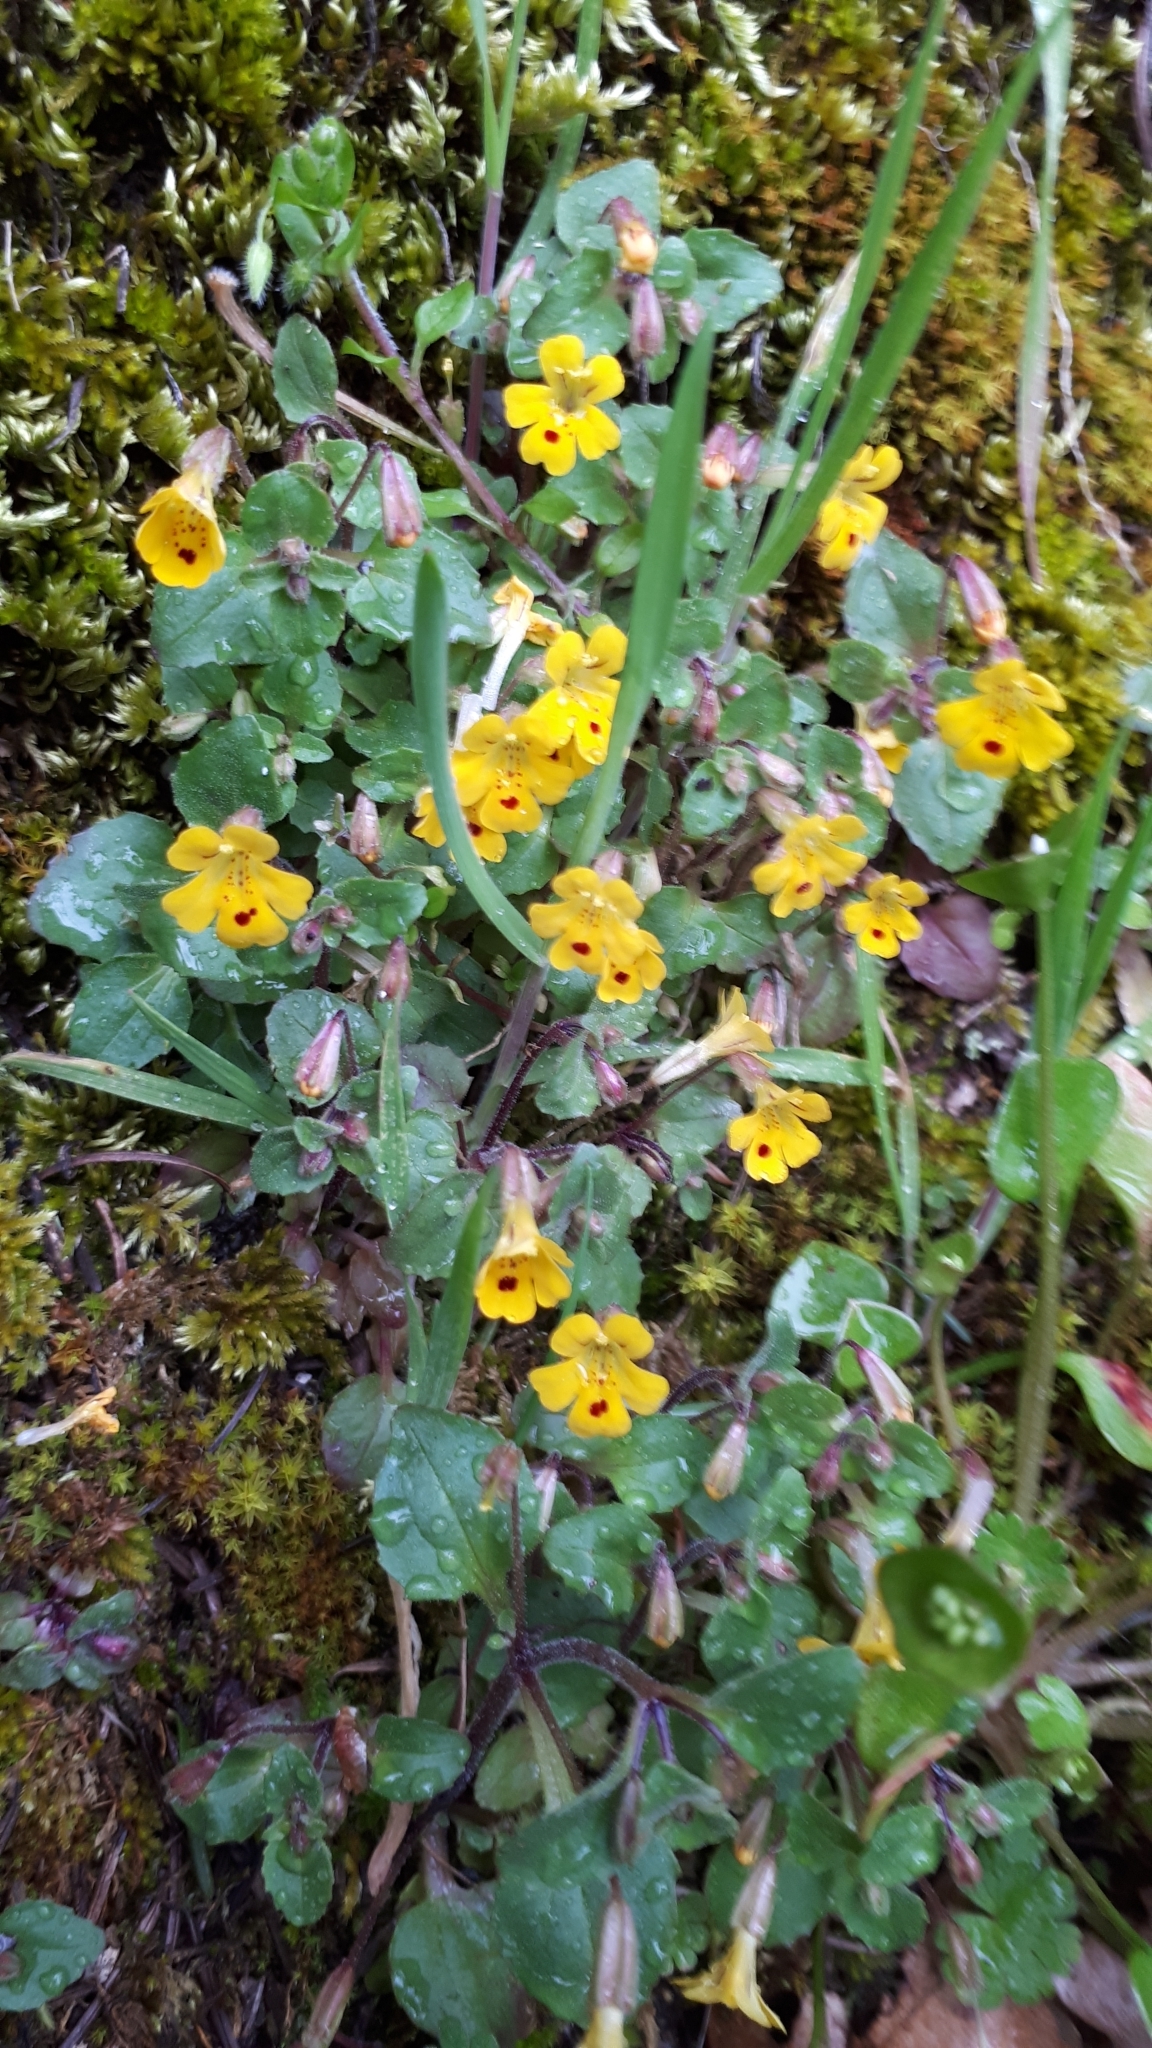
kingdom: Plantae
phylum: Tracheophyta
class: Magnoliopsida
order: Lamiales
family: Phrymaceae
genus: Erythranthe
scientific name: Erythranthe alsinoides
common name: Chickweed monkeyflower
